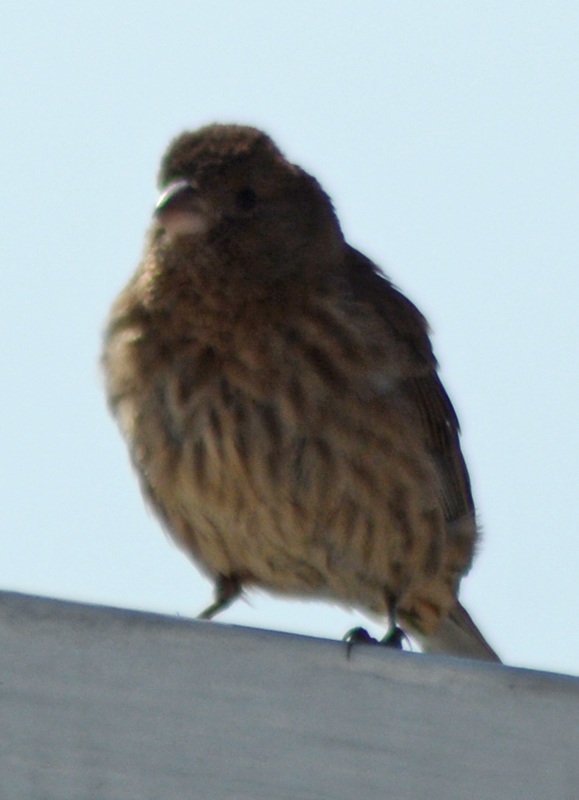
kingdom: Animalia
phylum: Chordata
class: Aves
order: Passeriformes
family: Fringillidae
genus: Haemorhous
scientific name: Haemorhous mexicanus
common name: House finch
